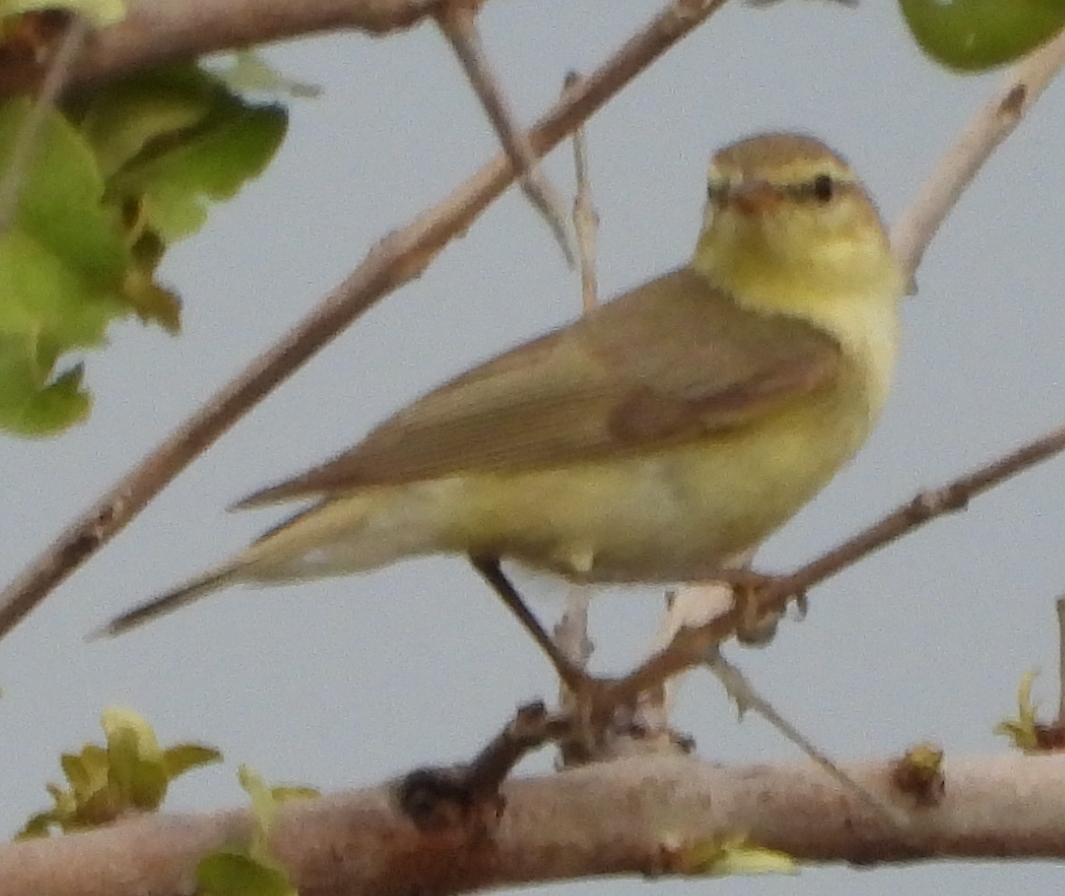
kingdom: Animalia
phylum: Chordata
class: Aves
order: Passeriformes
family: Phylloscopidae
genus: Phylloscopus
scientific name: Phylloscopus trochilus
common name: Willow warbler
